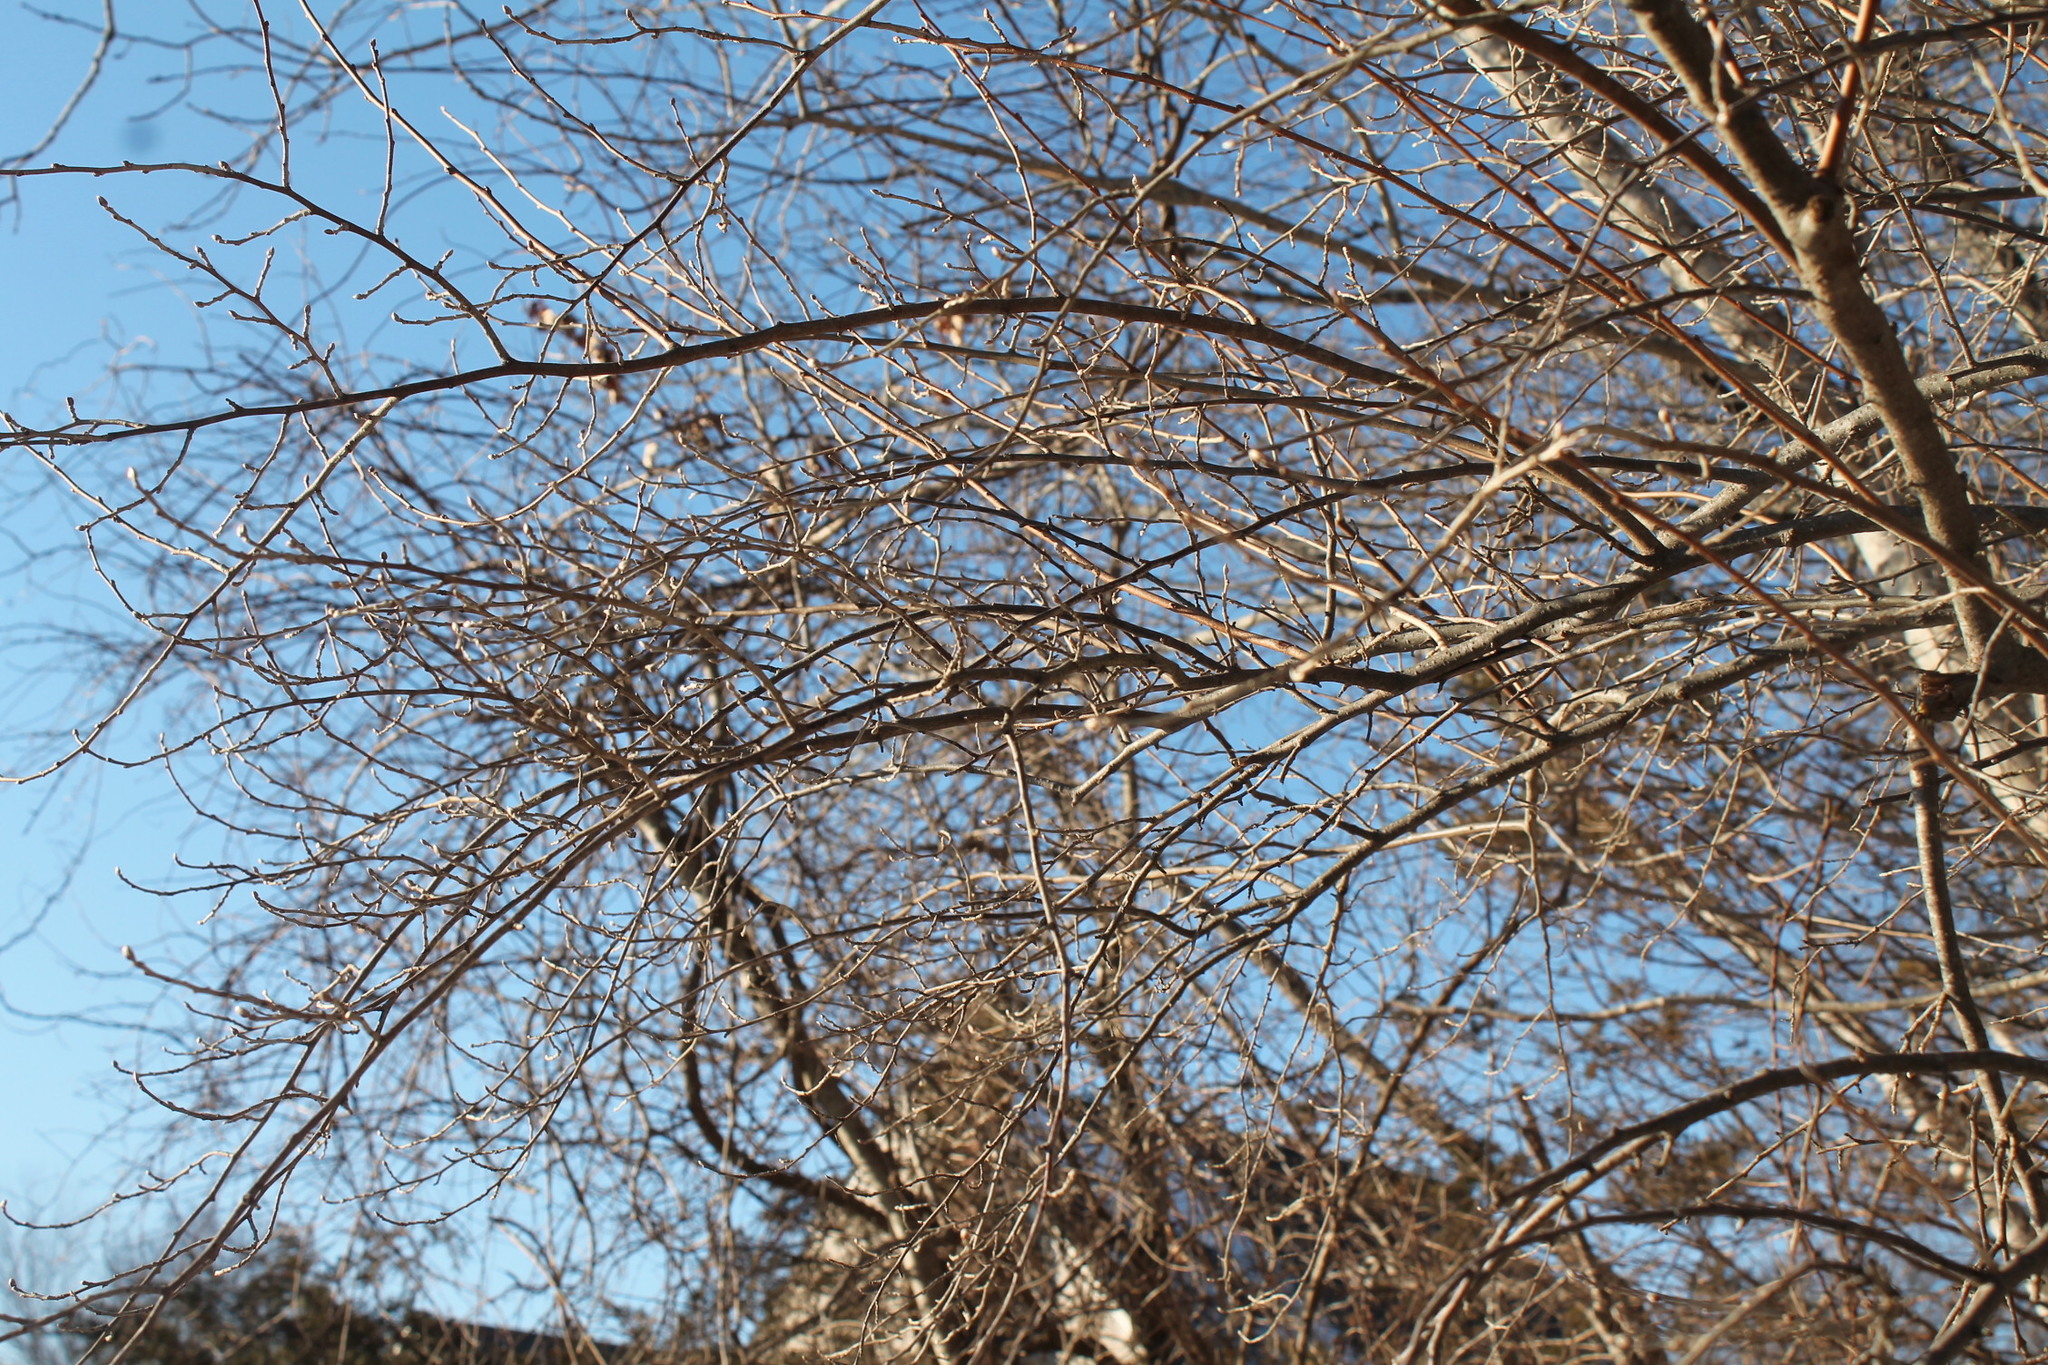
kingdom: Plantae
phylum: Tracheophyta
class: Magnoliopsida
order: Rosales
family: Elaeagnaceae
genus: Elaeagnus
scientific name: Elaeagnus umbellata
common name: Autumn olive
